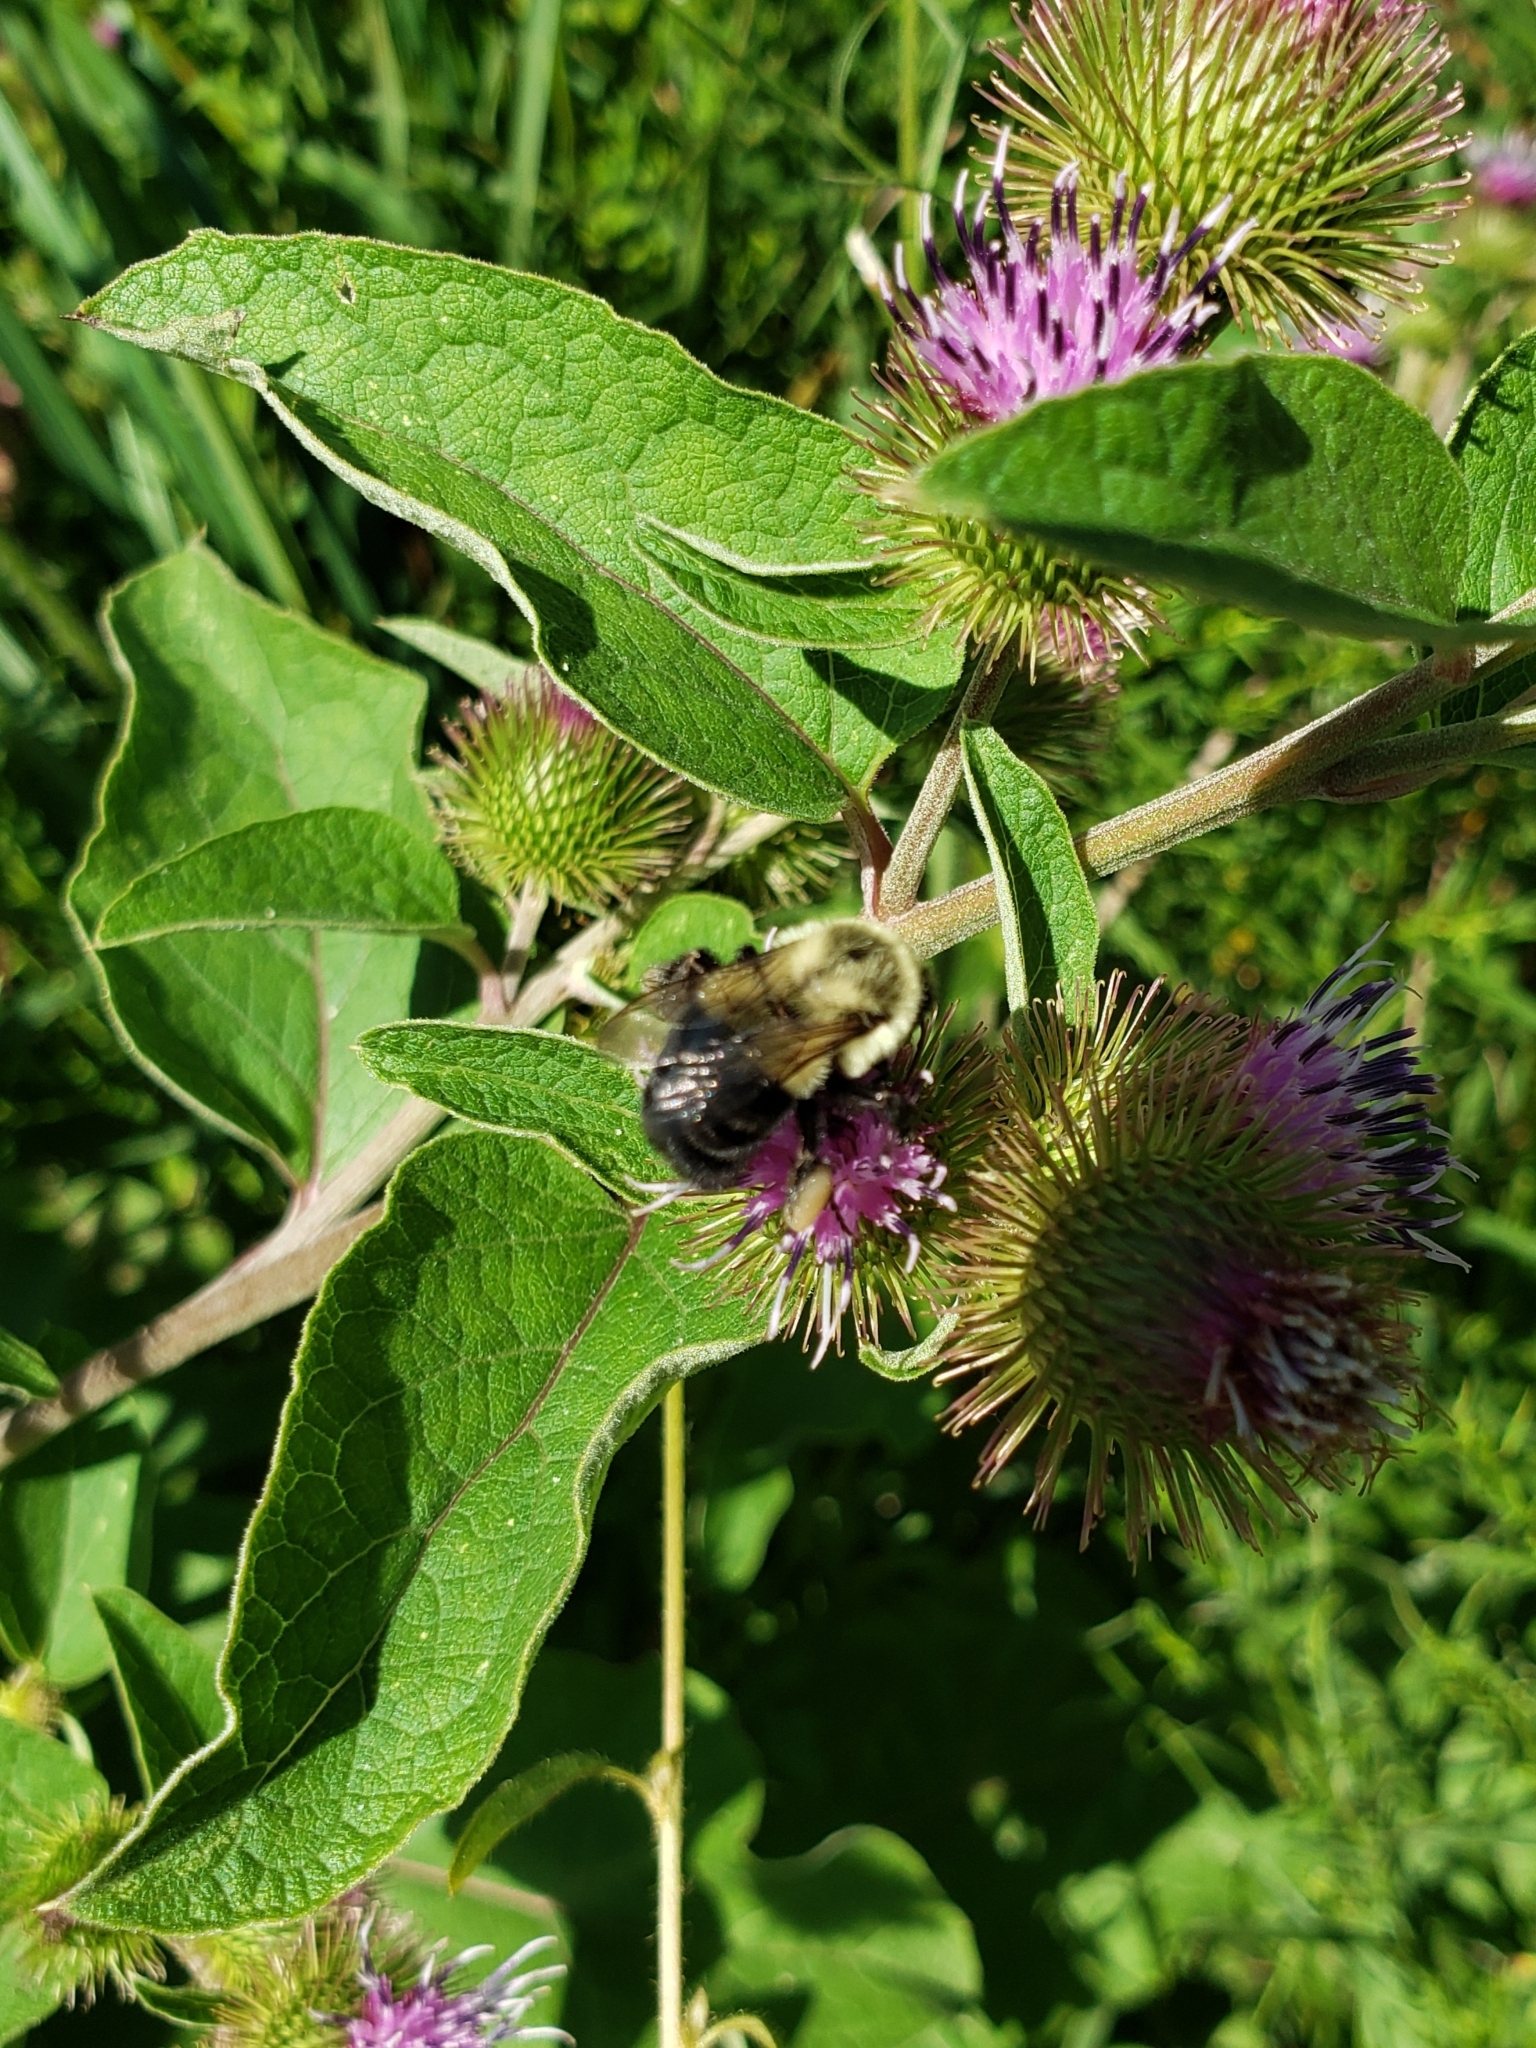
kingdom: Animalia
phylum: Arthropoda
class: Insecta
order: Hymenoptera
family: Apidae
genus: Apidae
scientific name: Apidae
